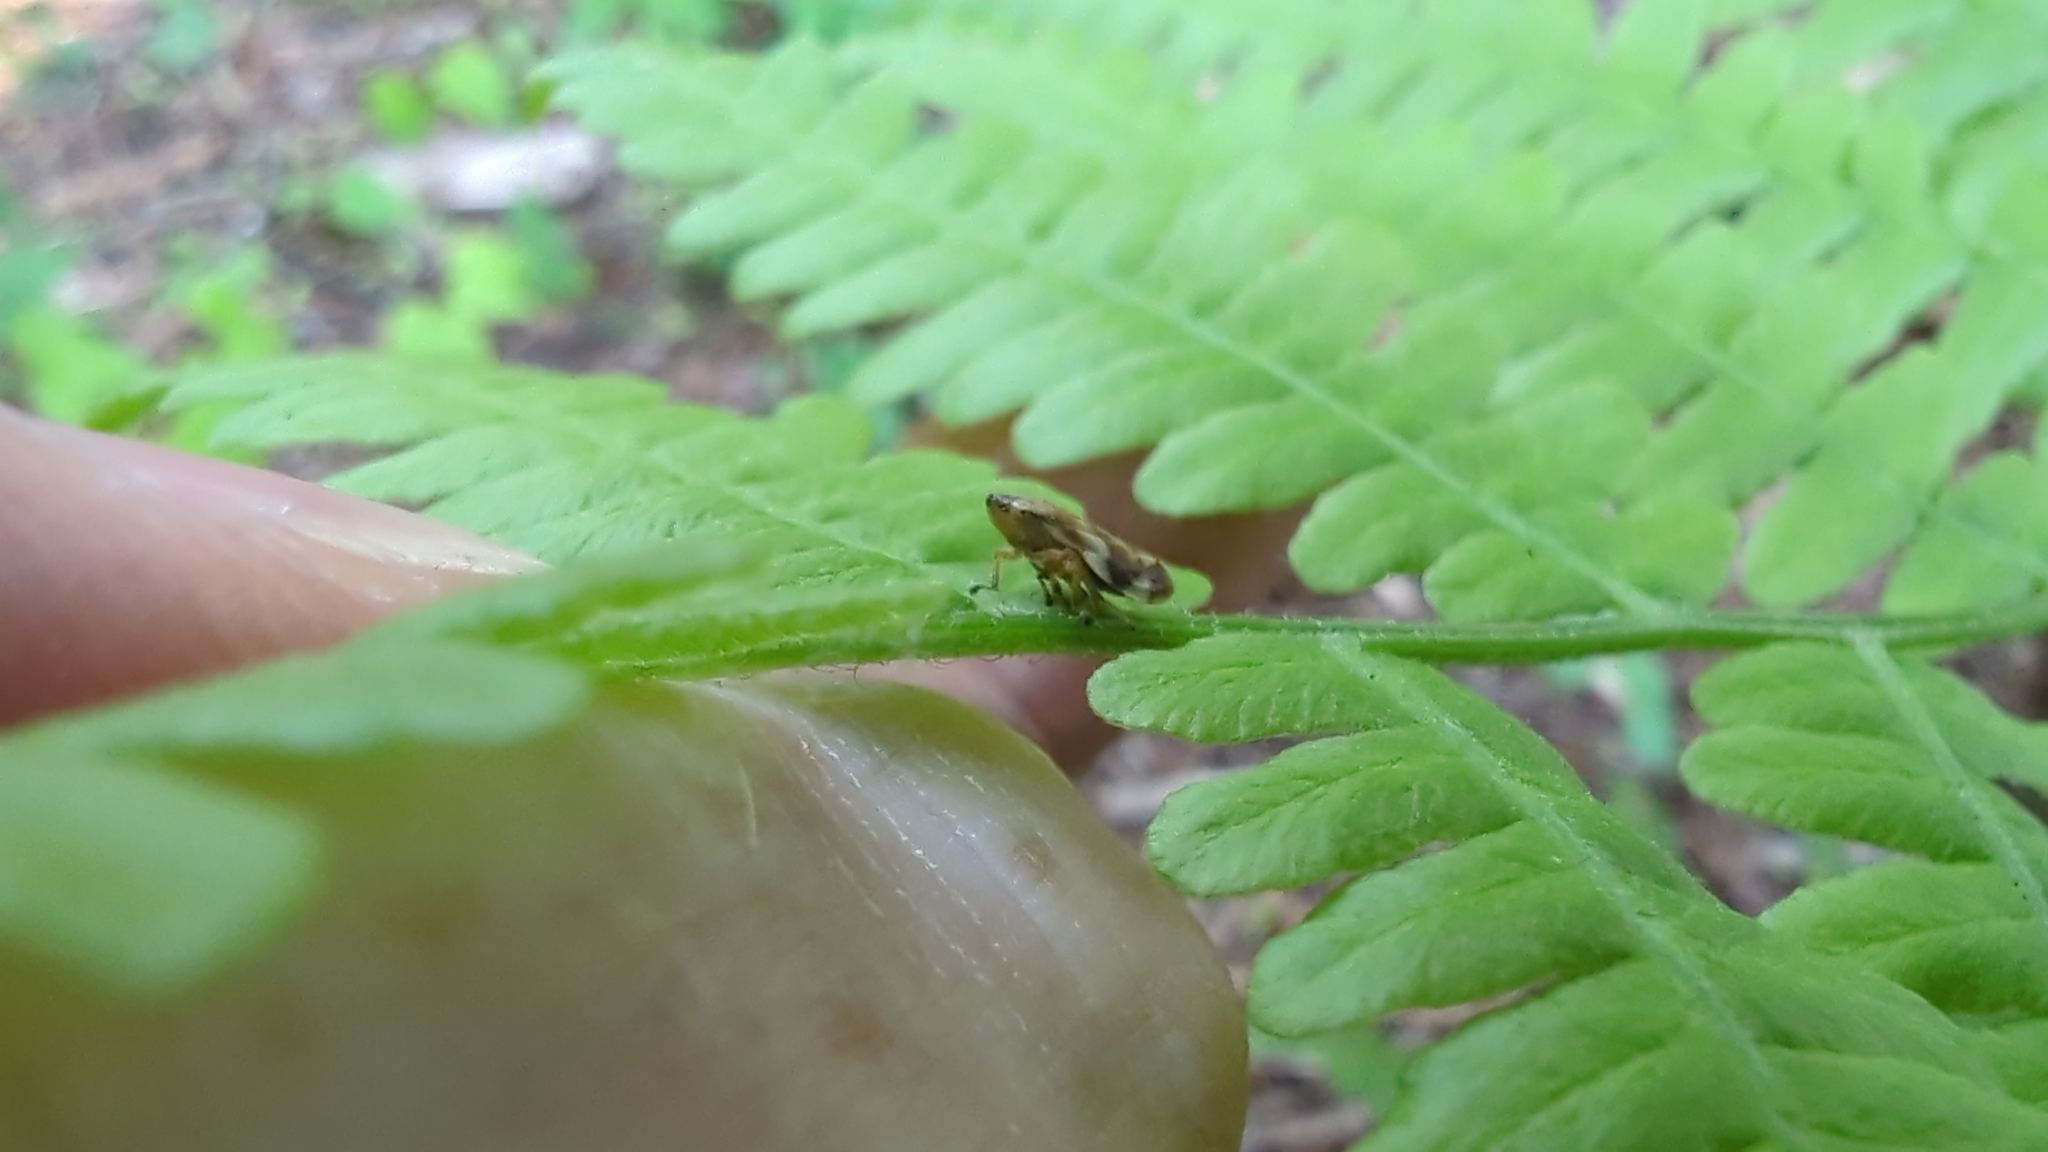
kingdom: Animalia
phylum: Arthropoda
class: Insecta
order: Hemiptera
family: Aphrophoridae
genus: Philaenus
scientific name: Philaenus spumarius
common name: Meadow spittlebug
